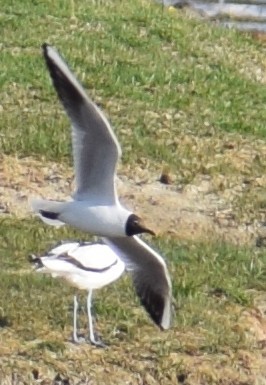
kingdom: Animalia
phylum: Chordata
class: Aves
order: Charadriiformes
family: Laridae
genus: Chroicocephalus
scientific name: Chroicocephalus ridibundus
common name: Black-headed gull
